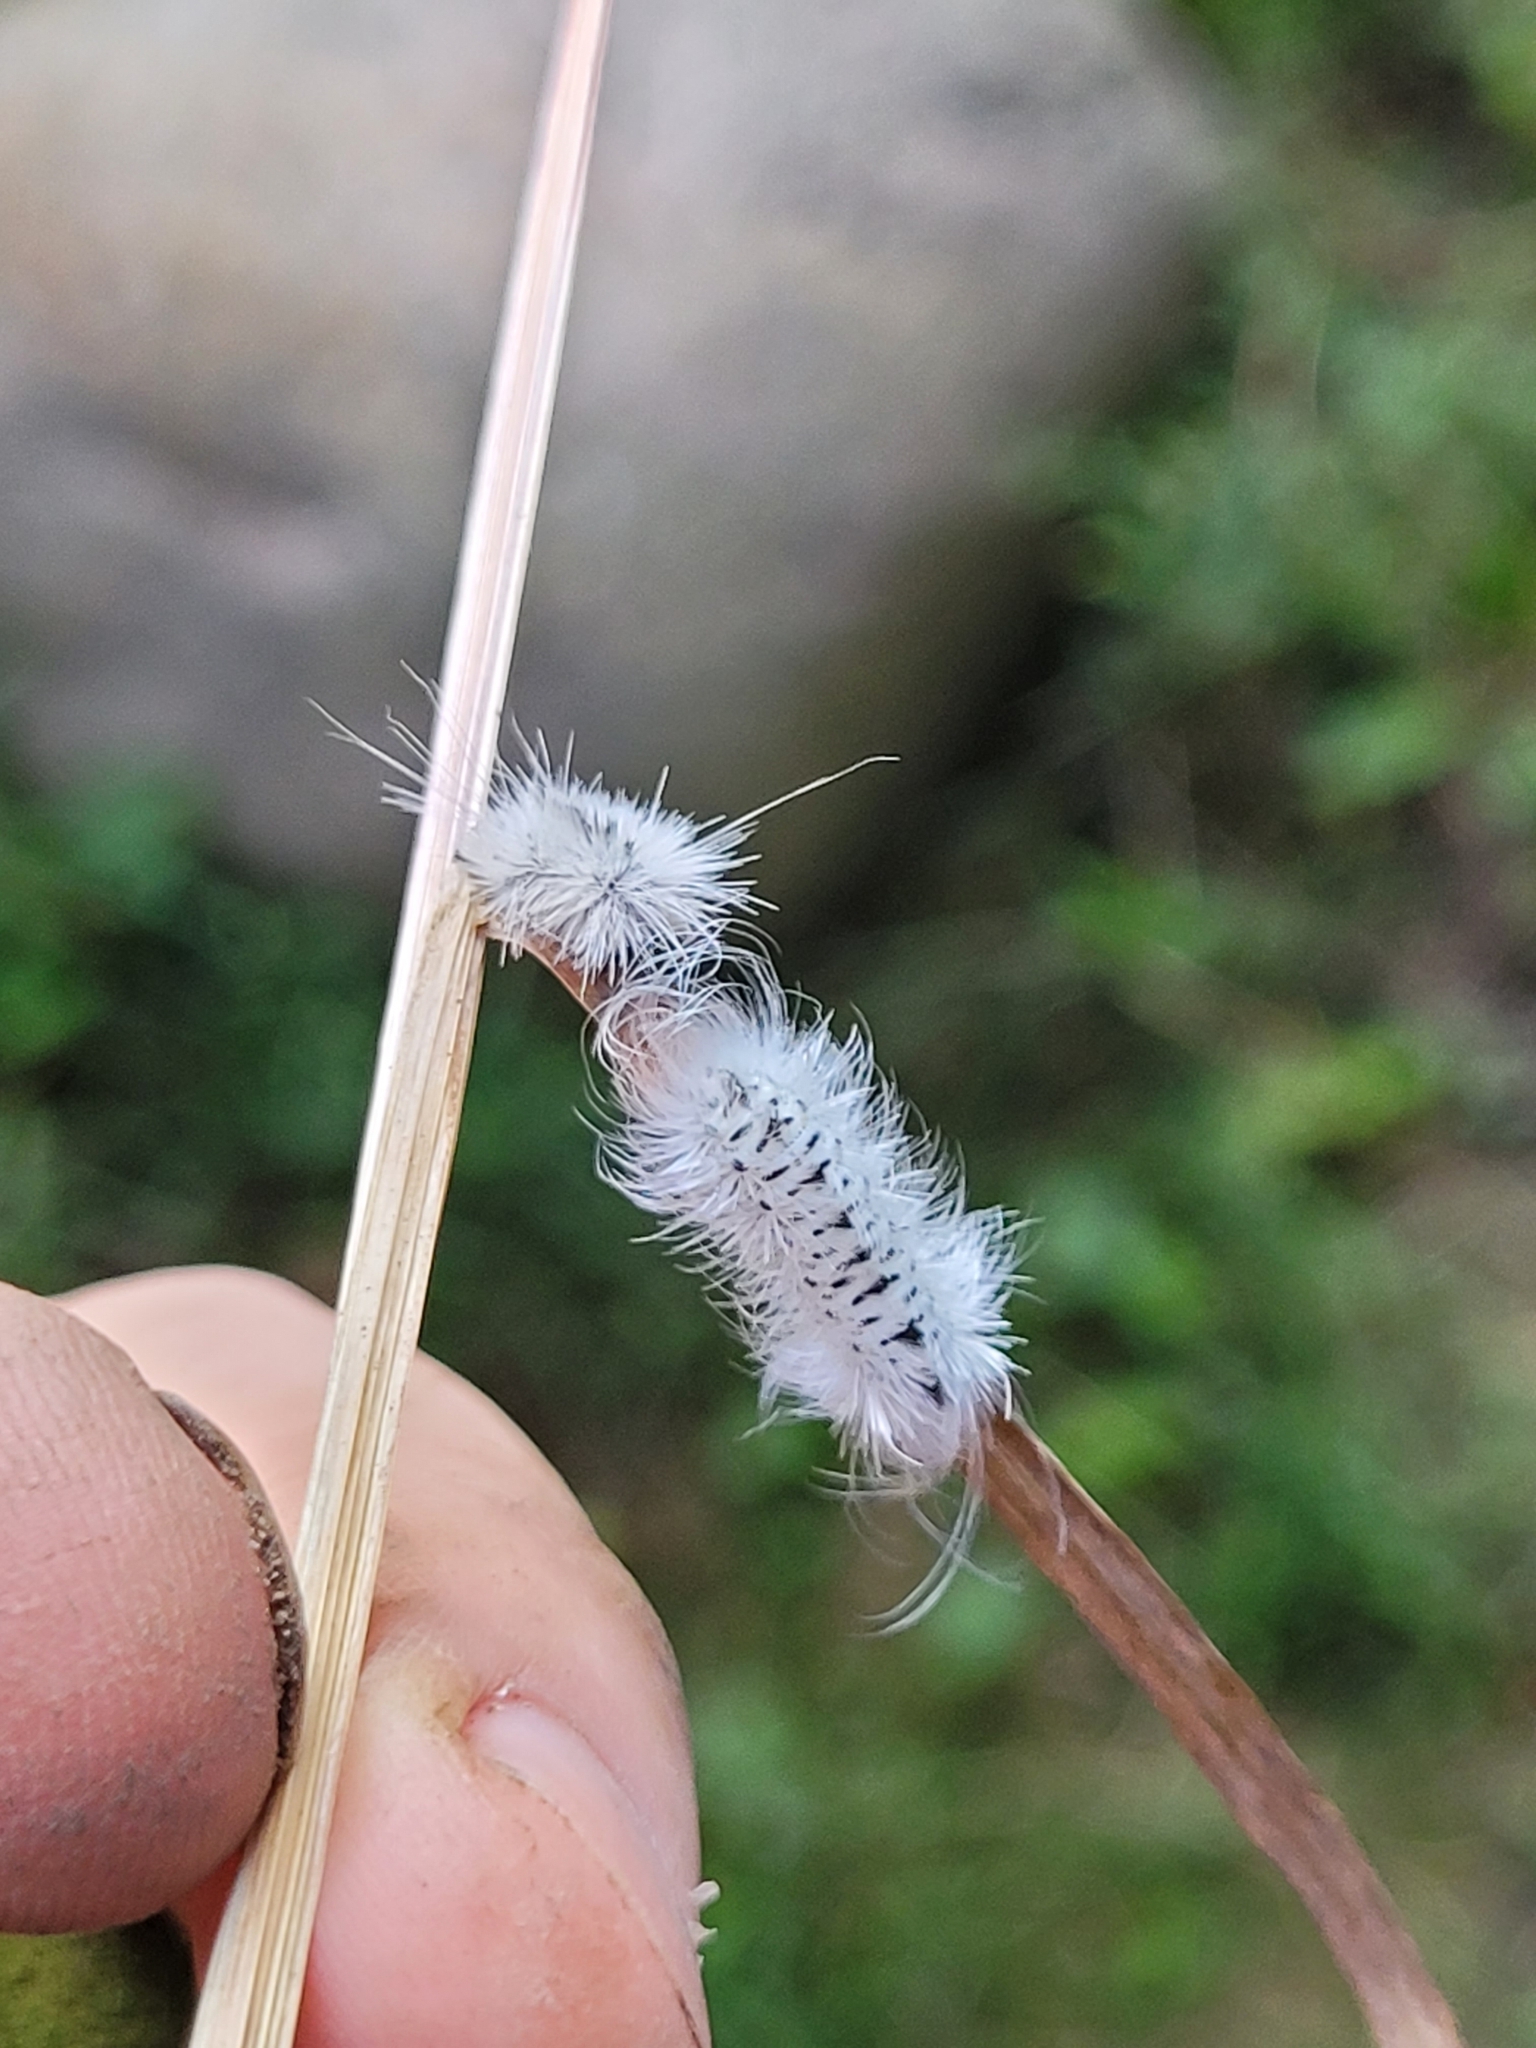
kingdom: Animalia
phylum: Arthropoda
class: Insecta
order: Lepidoptera
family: Erebidae
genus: Lophocampa
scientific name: Lophocampa caryae
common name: Hickory tussock moth
